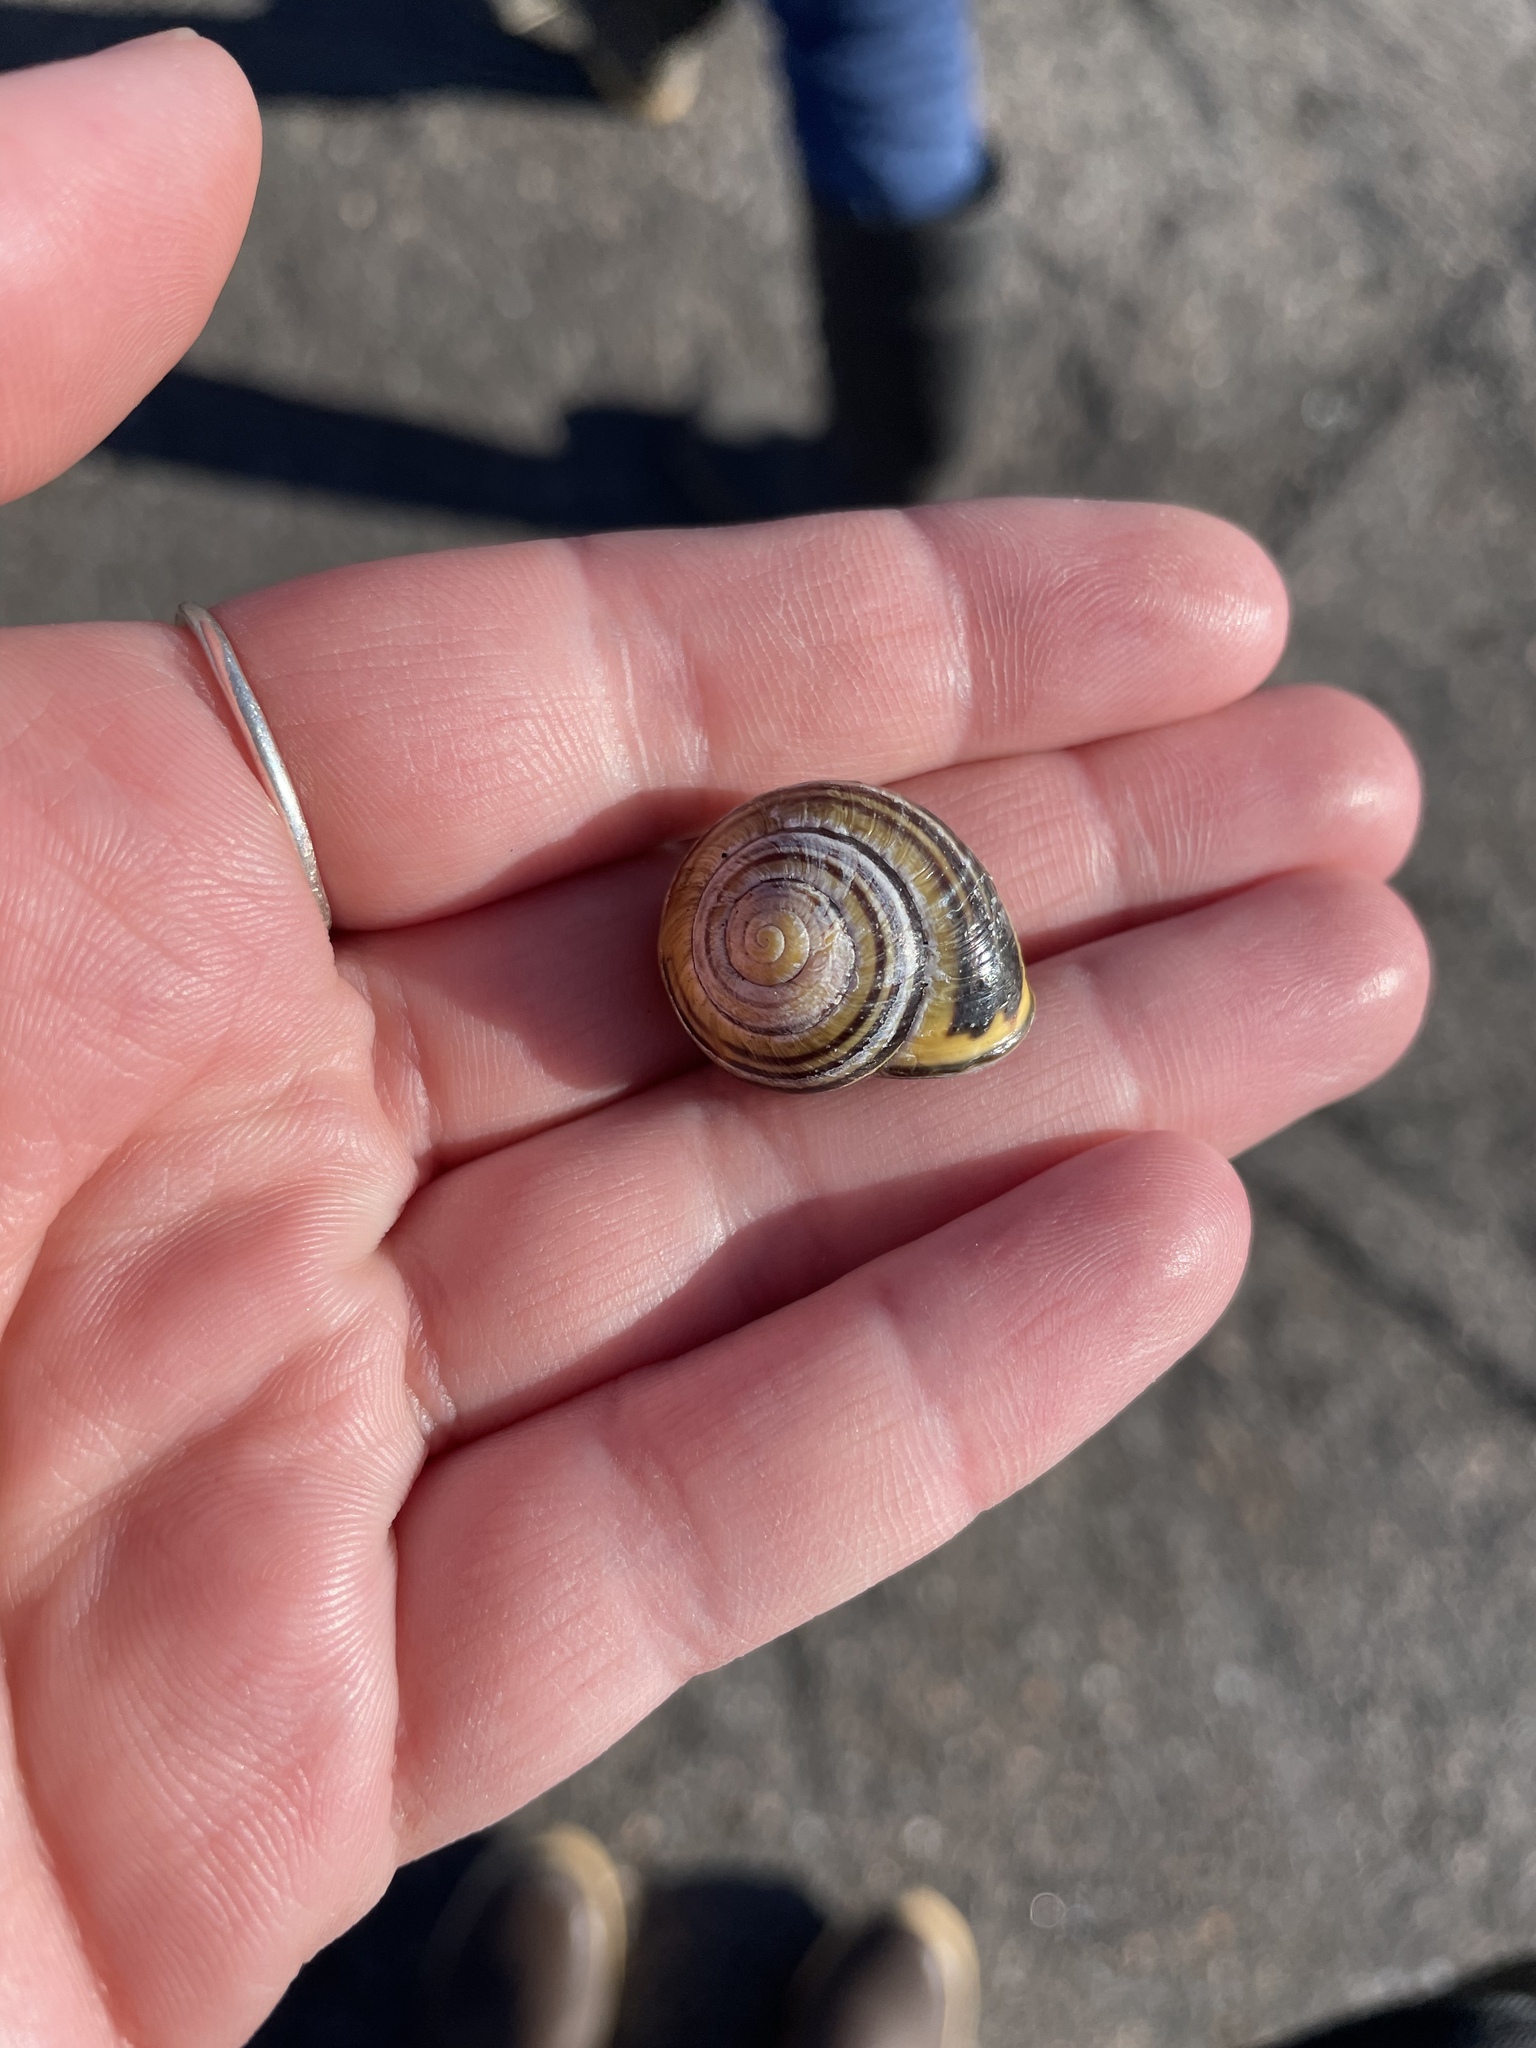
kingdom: Animalia
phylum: Mollusca
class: Gastropoda
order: Stylommatophora
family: Helicidae
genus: Cepaea
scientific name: Cepaea nemoralis
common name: Grovesnail
